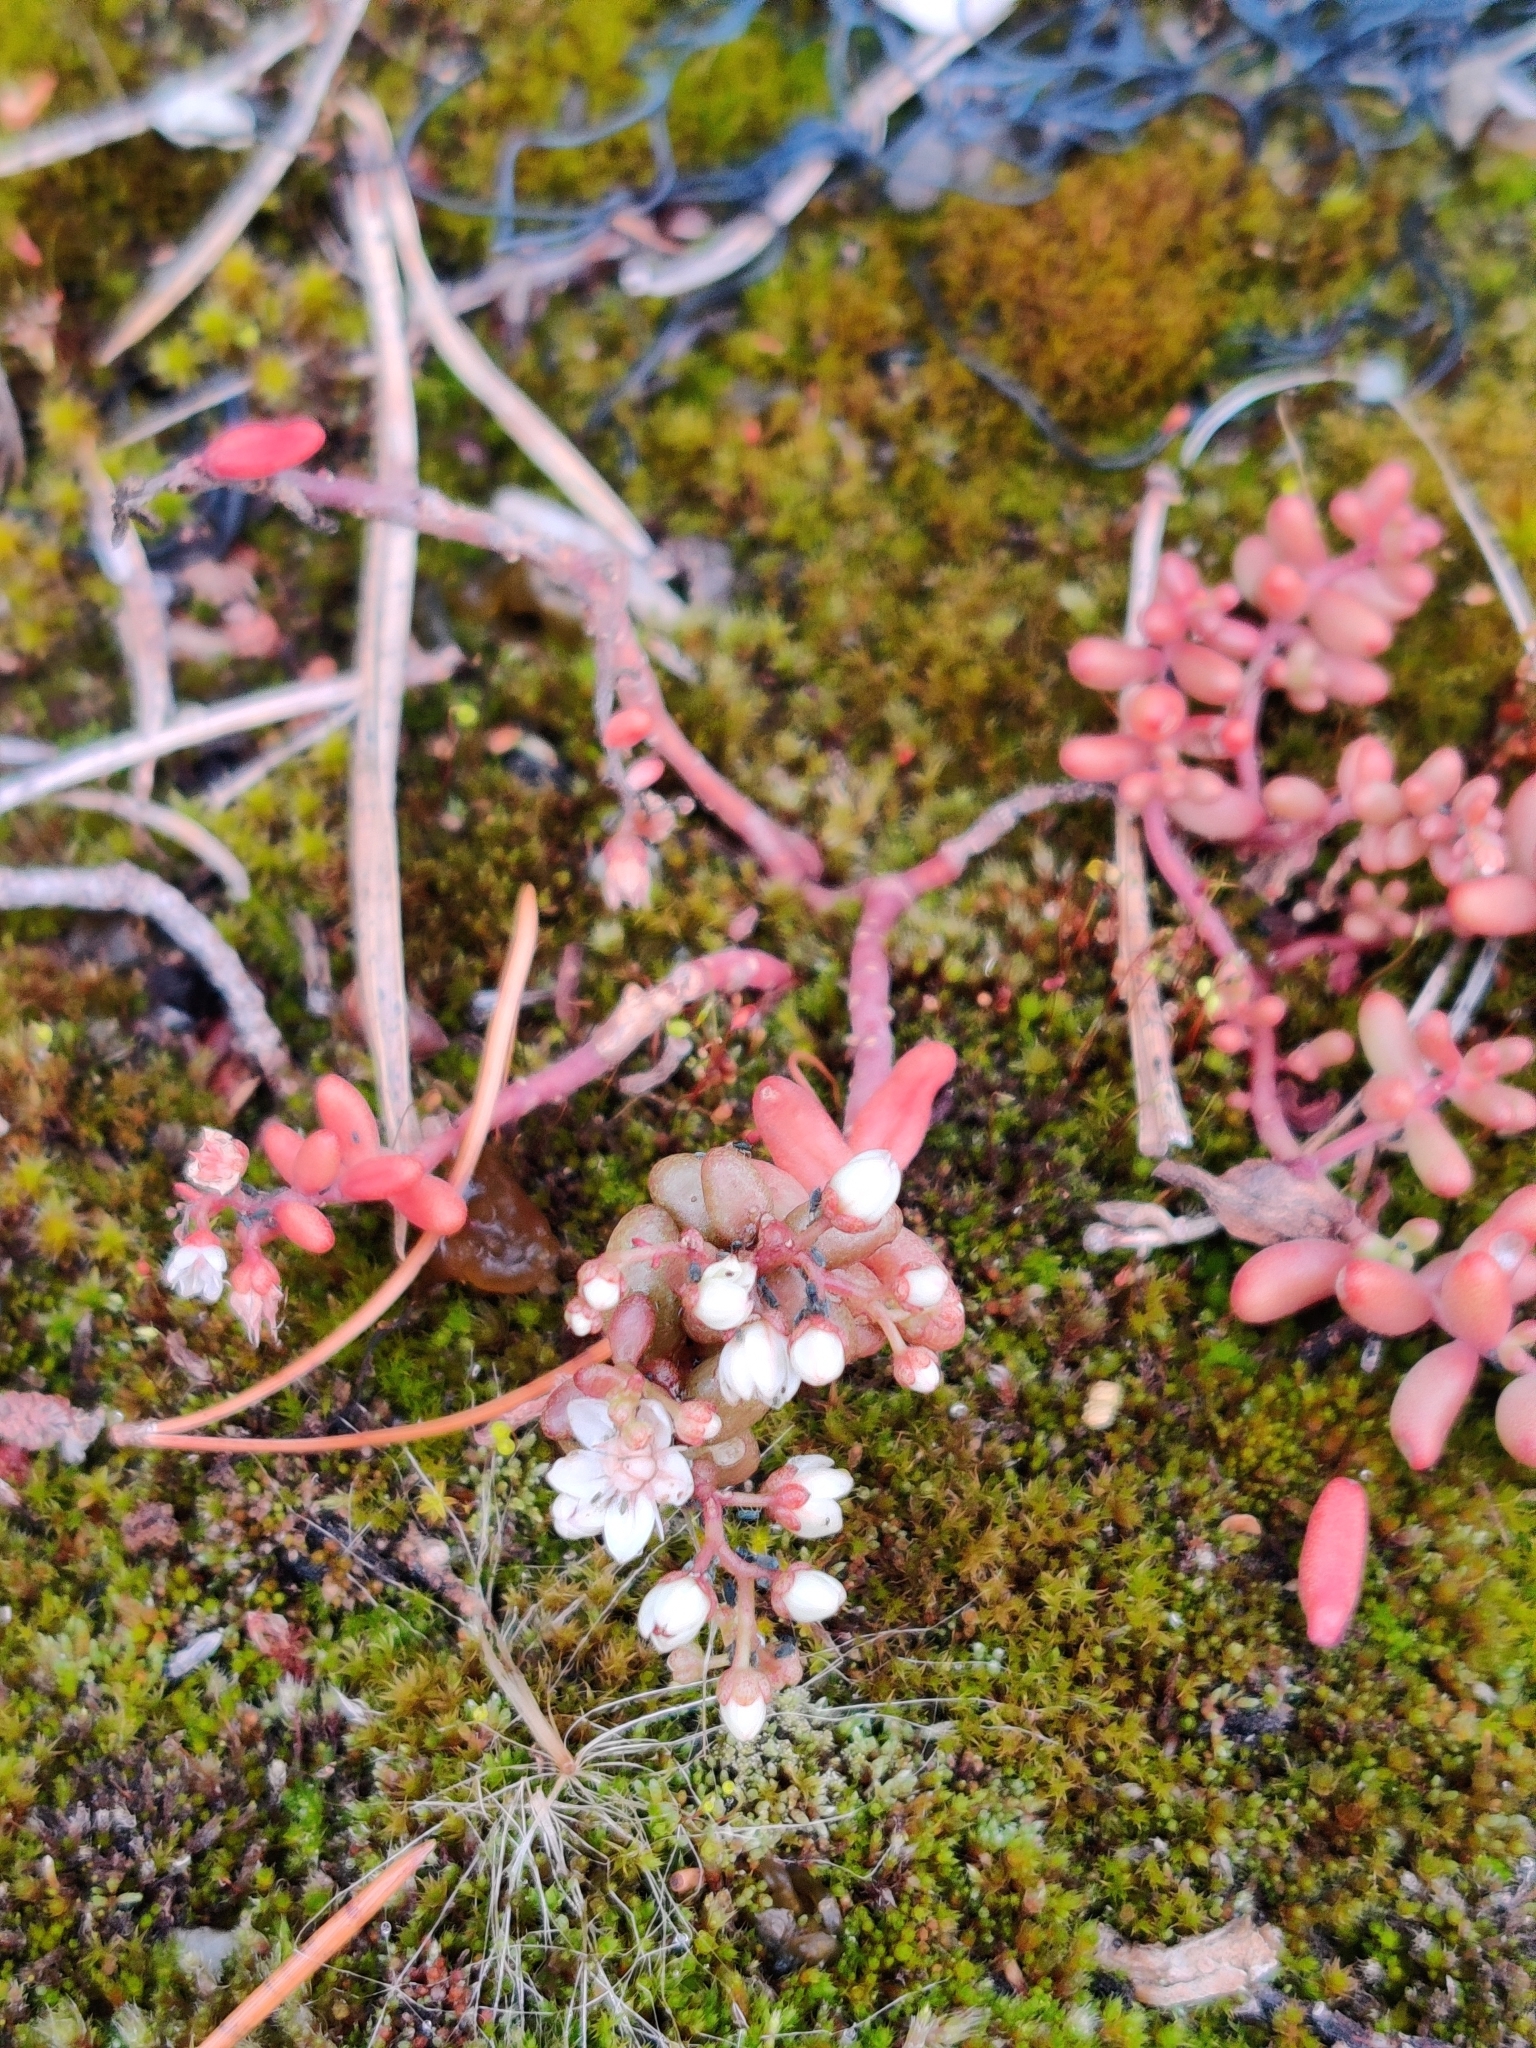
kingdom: Plantae
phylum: Tracheophyta
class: Magnoliopsida
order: Saxifragales
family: Crassulaceae
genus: Sedum
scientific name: Sedum album
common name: White stonecrop
